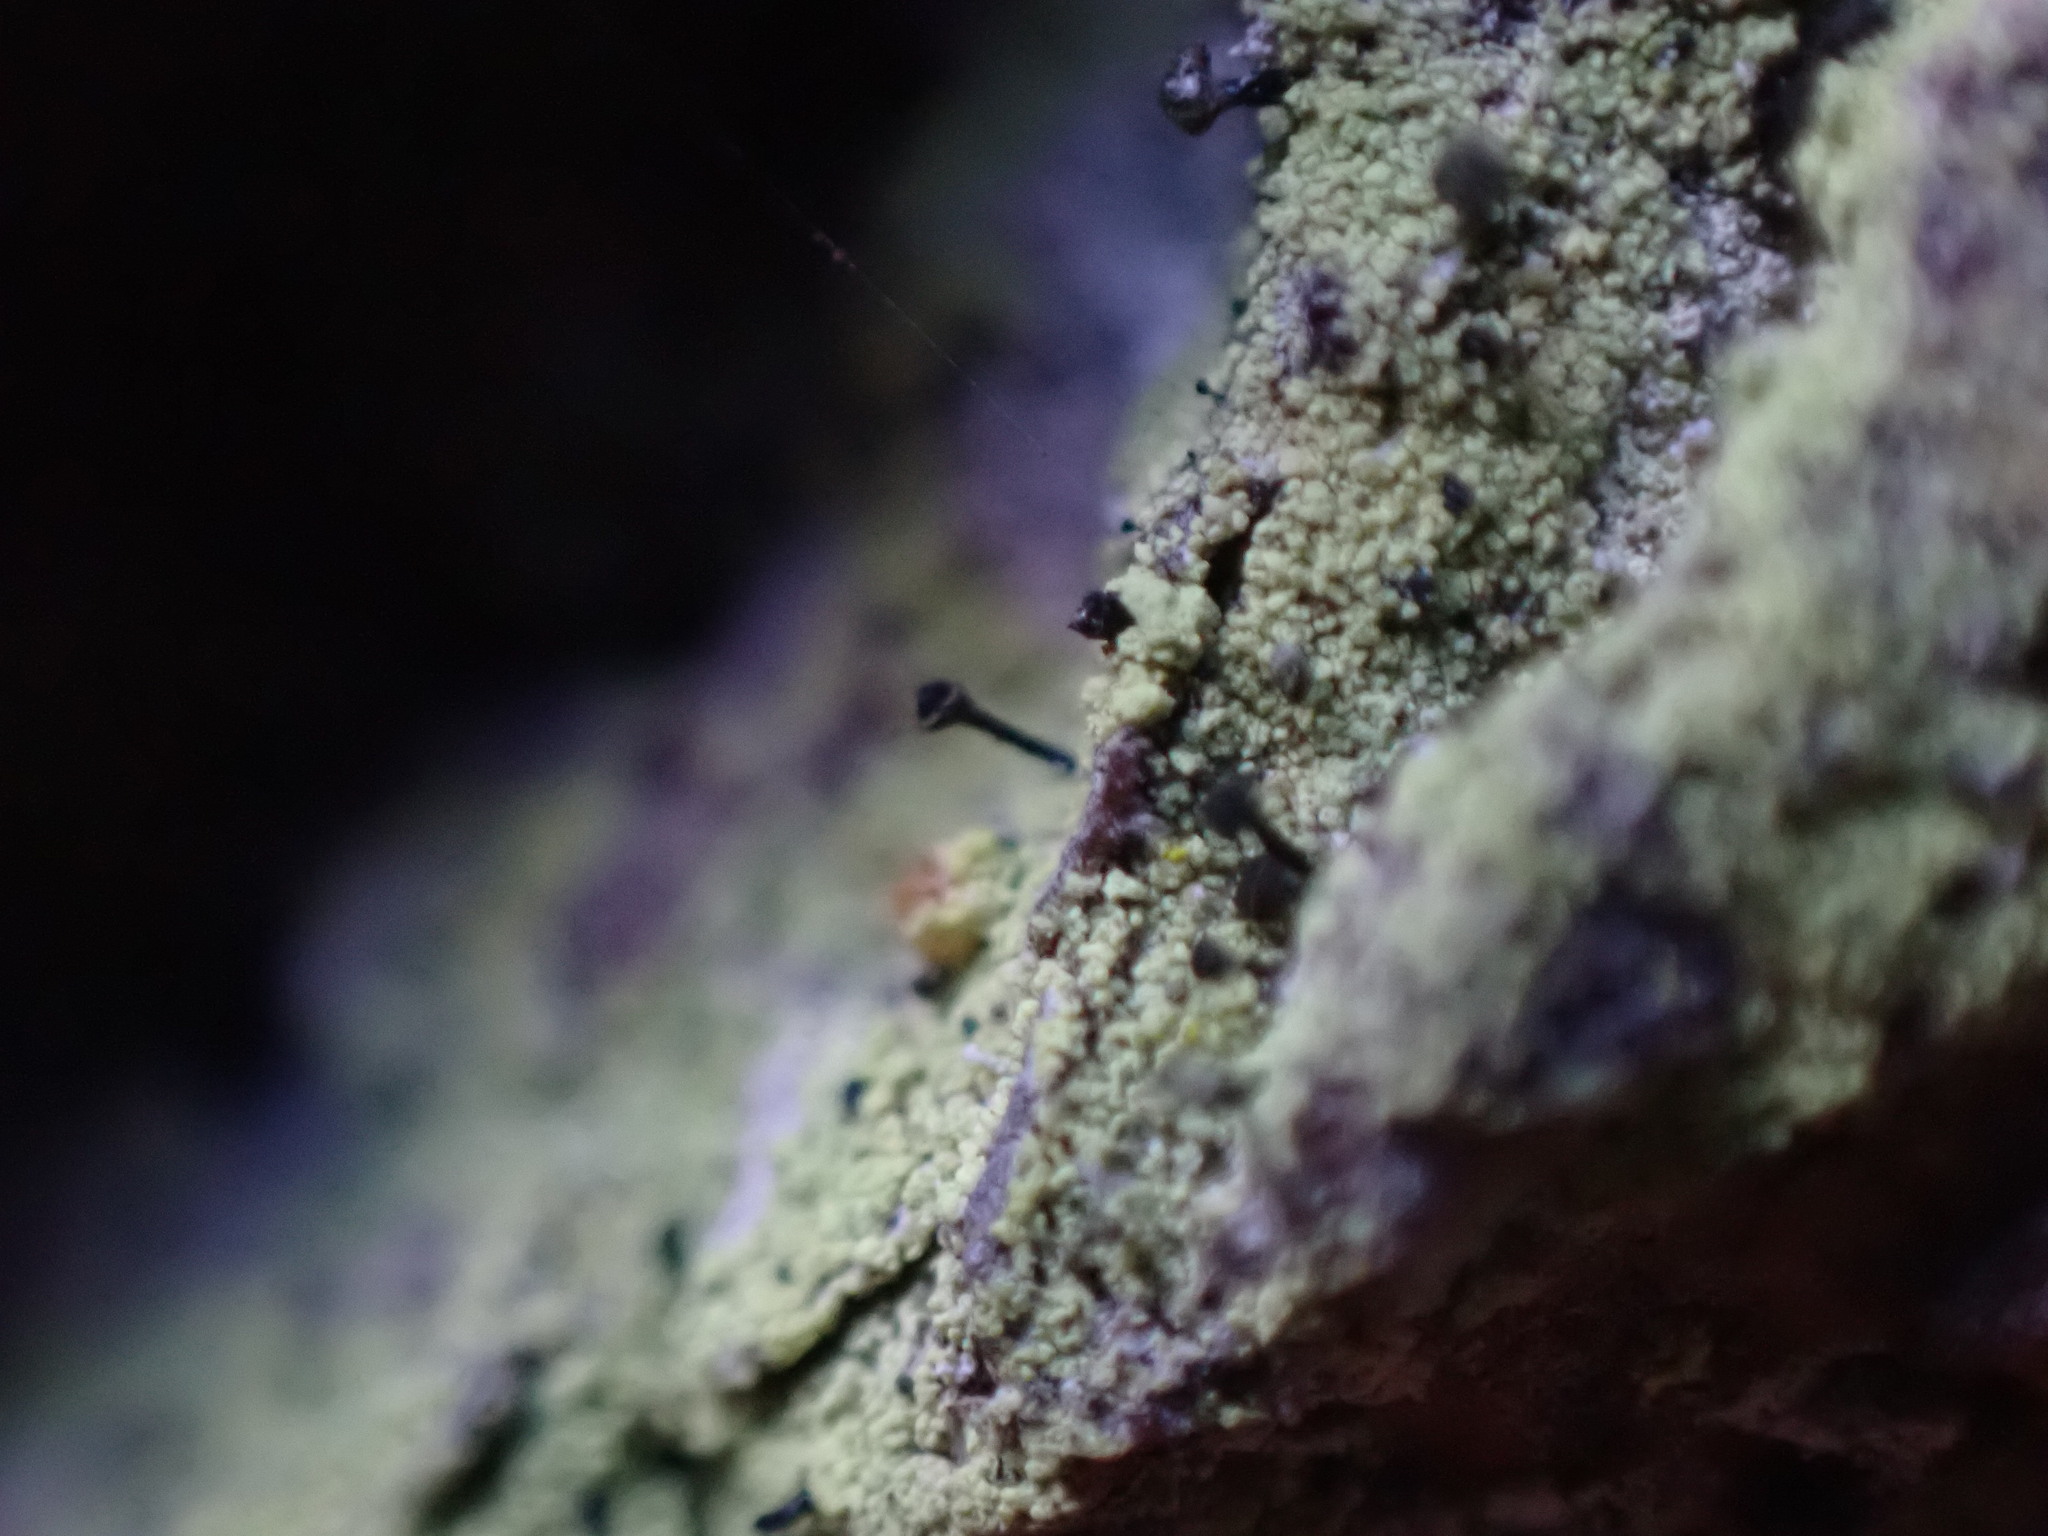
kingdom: Fungi
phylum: Ascomycota
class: Lecanoromycetes
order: Caliciales
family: Caliciaceae
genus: Calicium
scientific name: Calicium viride
